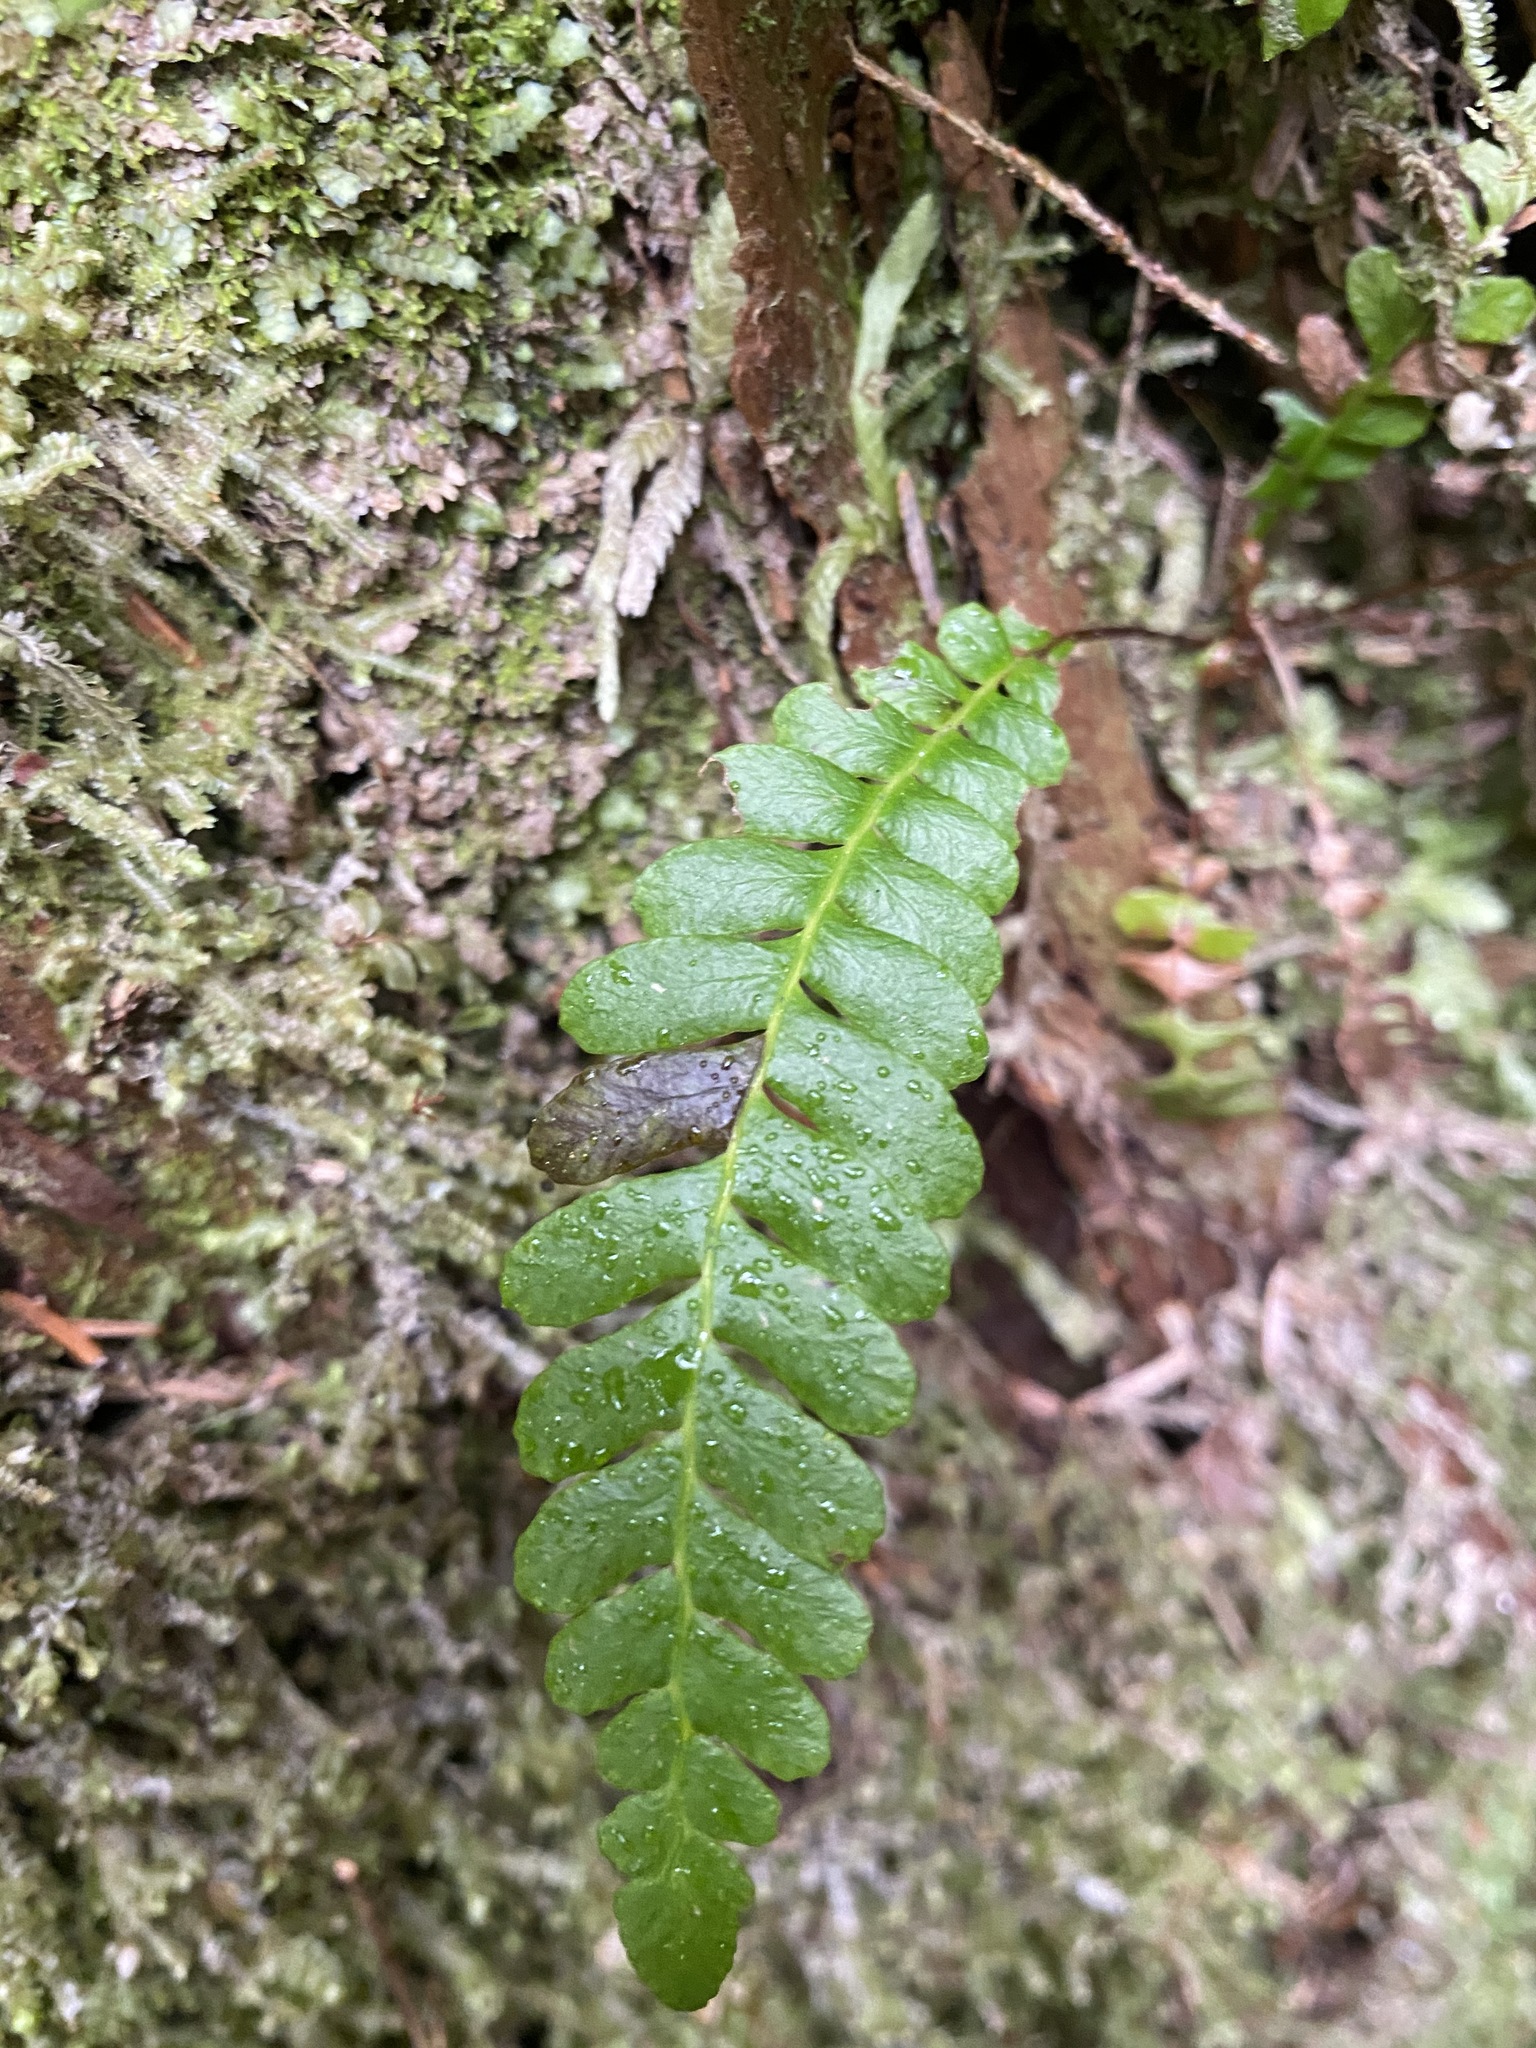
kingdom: Plantae
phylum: Tracheophyta
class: Polypodiopsida
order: Polypodiales
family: Blechnaceae
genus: Struthiopteris
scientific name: Struthiopteris spicant
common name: Deer fern
